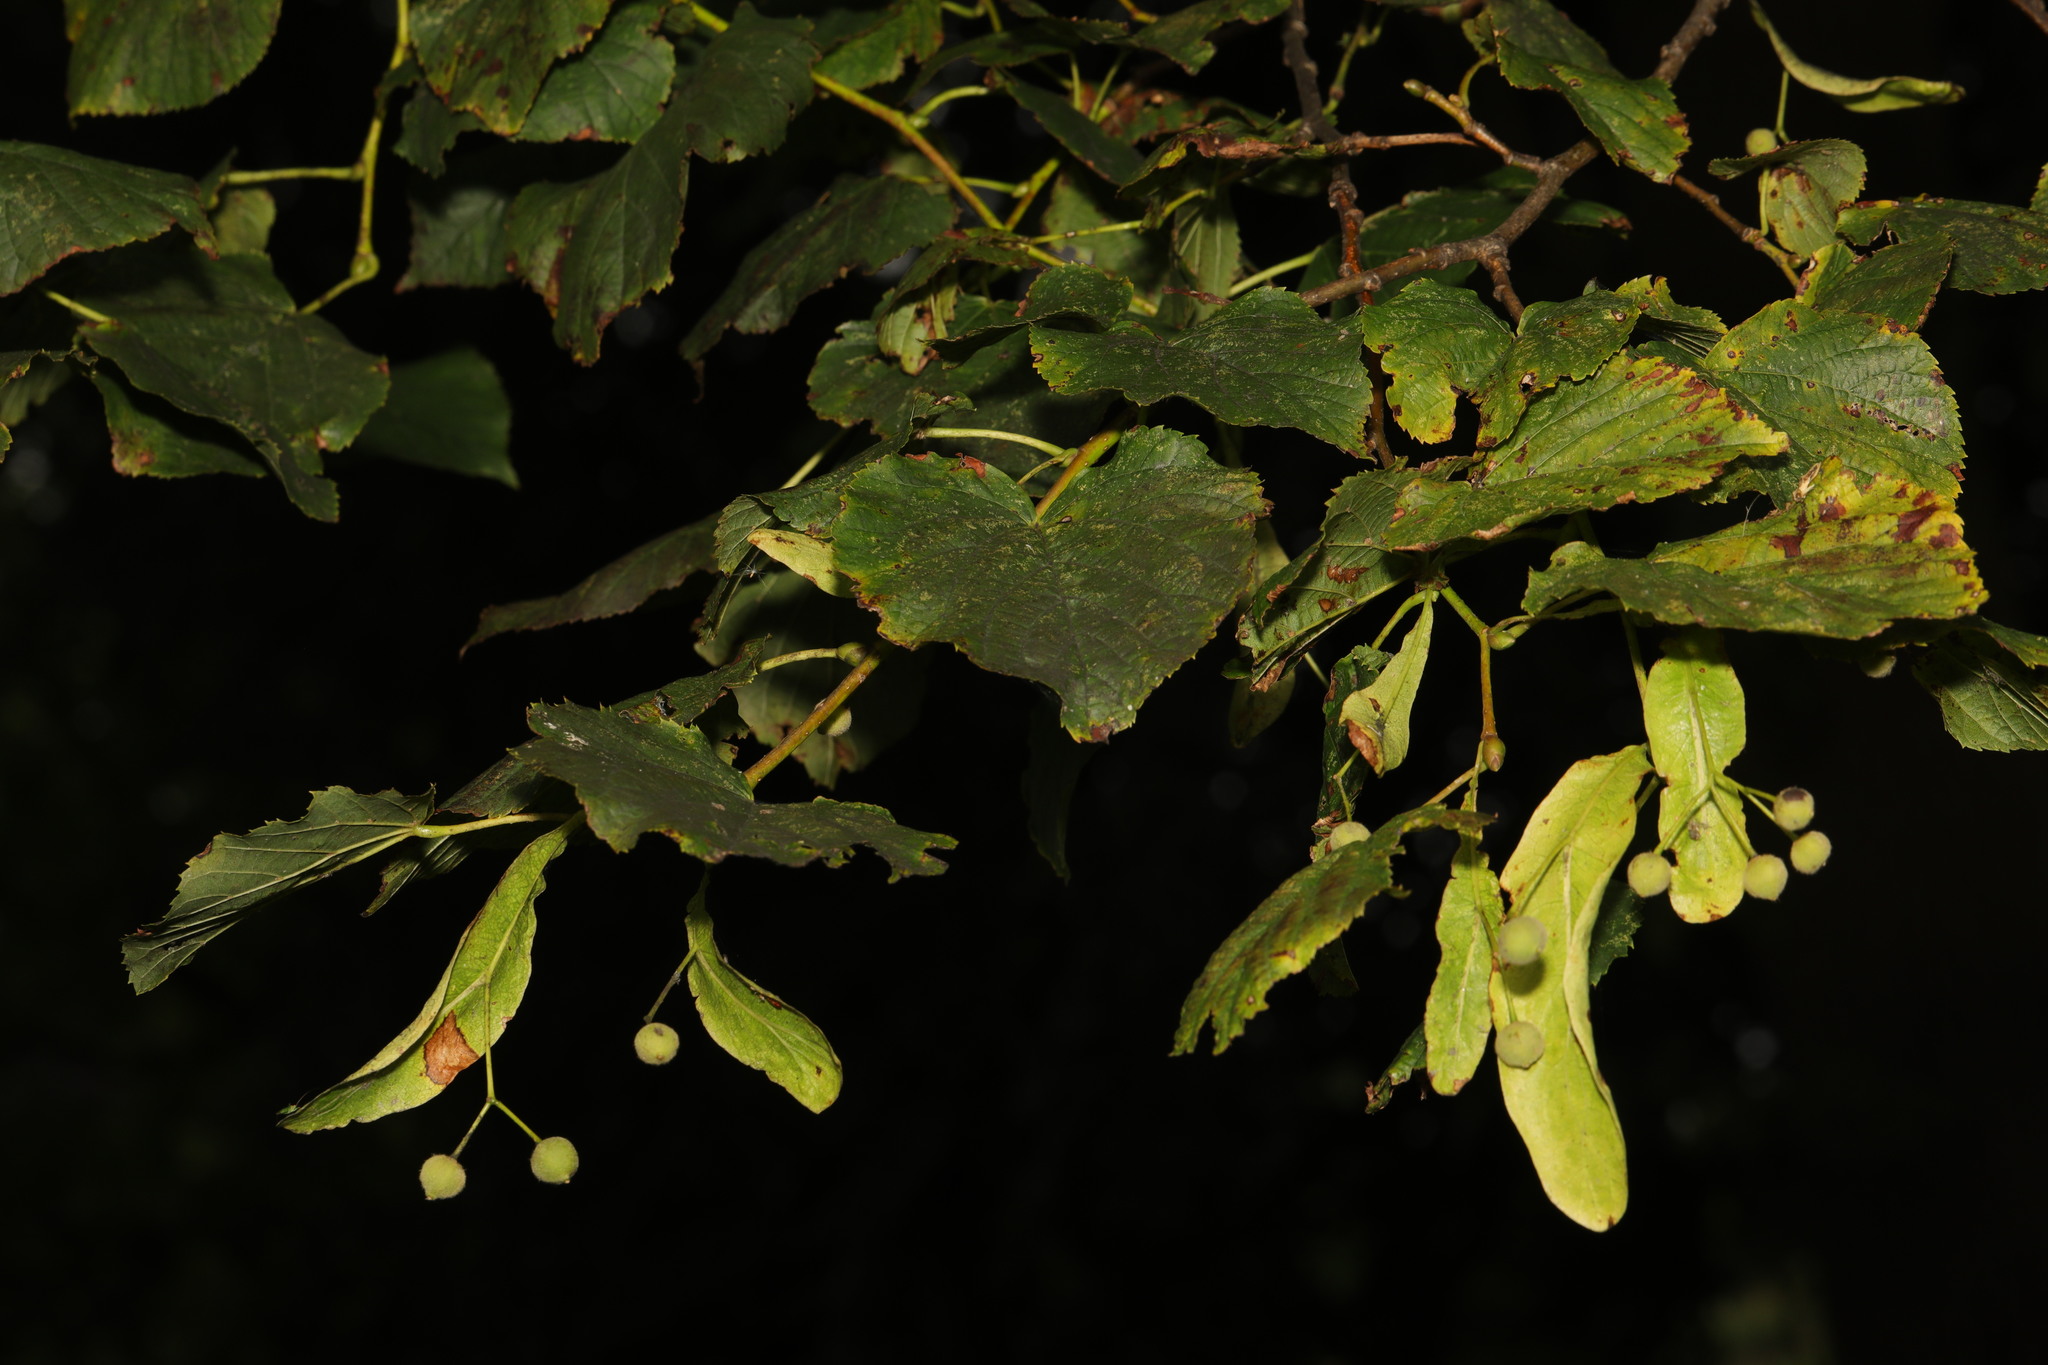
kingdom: Plantae
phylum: Tracheophyta
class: Magnoliopsida
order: Malvales
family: Malvaceae
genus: Tilia
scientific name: Tilia europaea
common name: European linden
